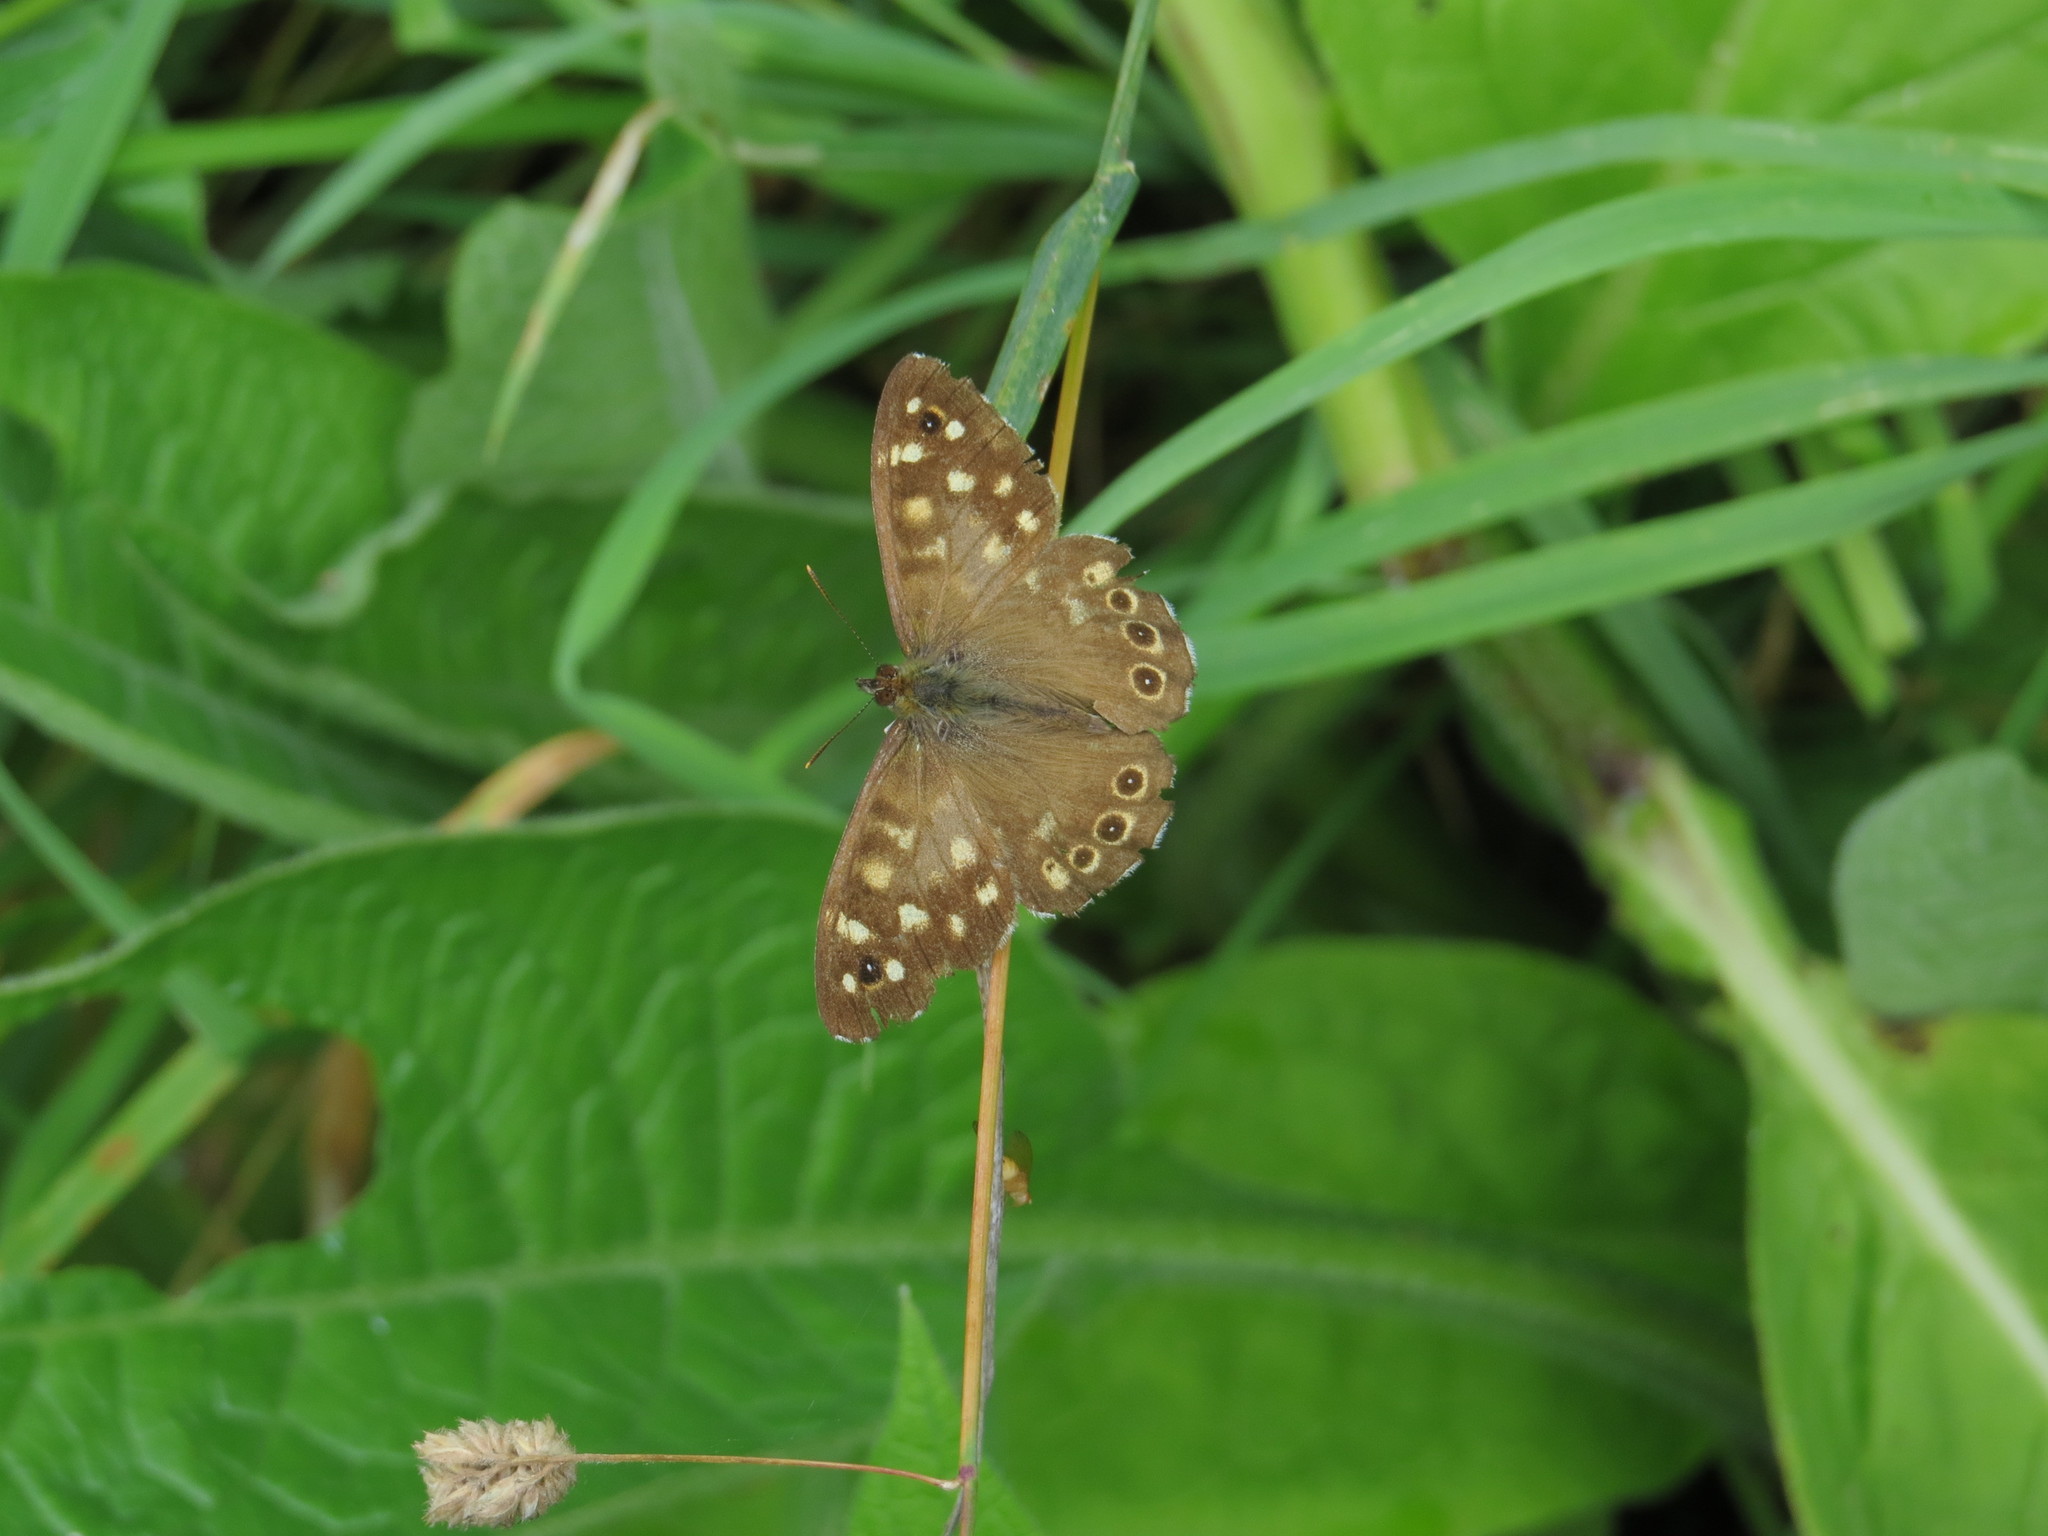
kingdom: Animalia
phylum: Arthropoda
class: Insecta
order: Lepidoptera
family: Nymphalidae
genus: Pararge
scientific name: Pararge aegeria
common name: Speckled wood
